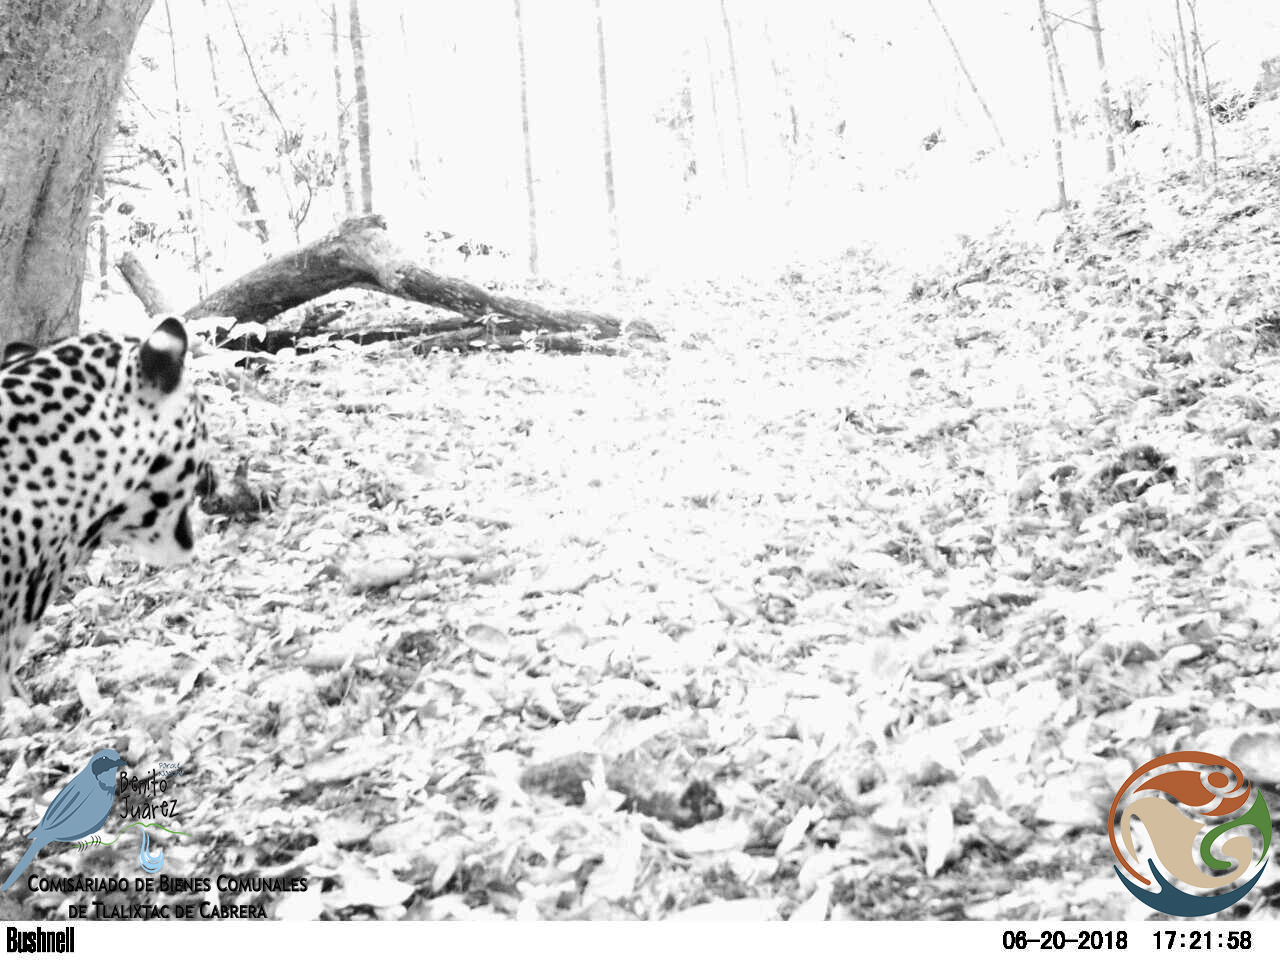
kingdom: Animalia
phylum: Chordata
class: Mammalia
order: Carnivora
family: Felidae
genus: Panthera
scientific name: Panthera onca
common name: Jaguar
